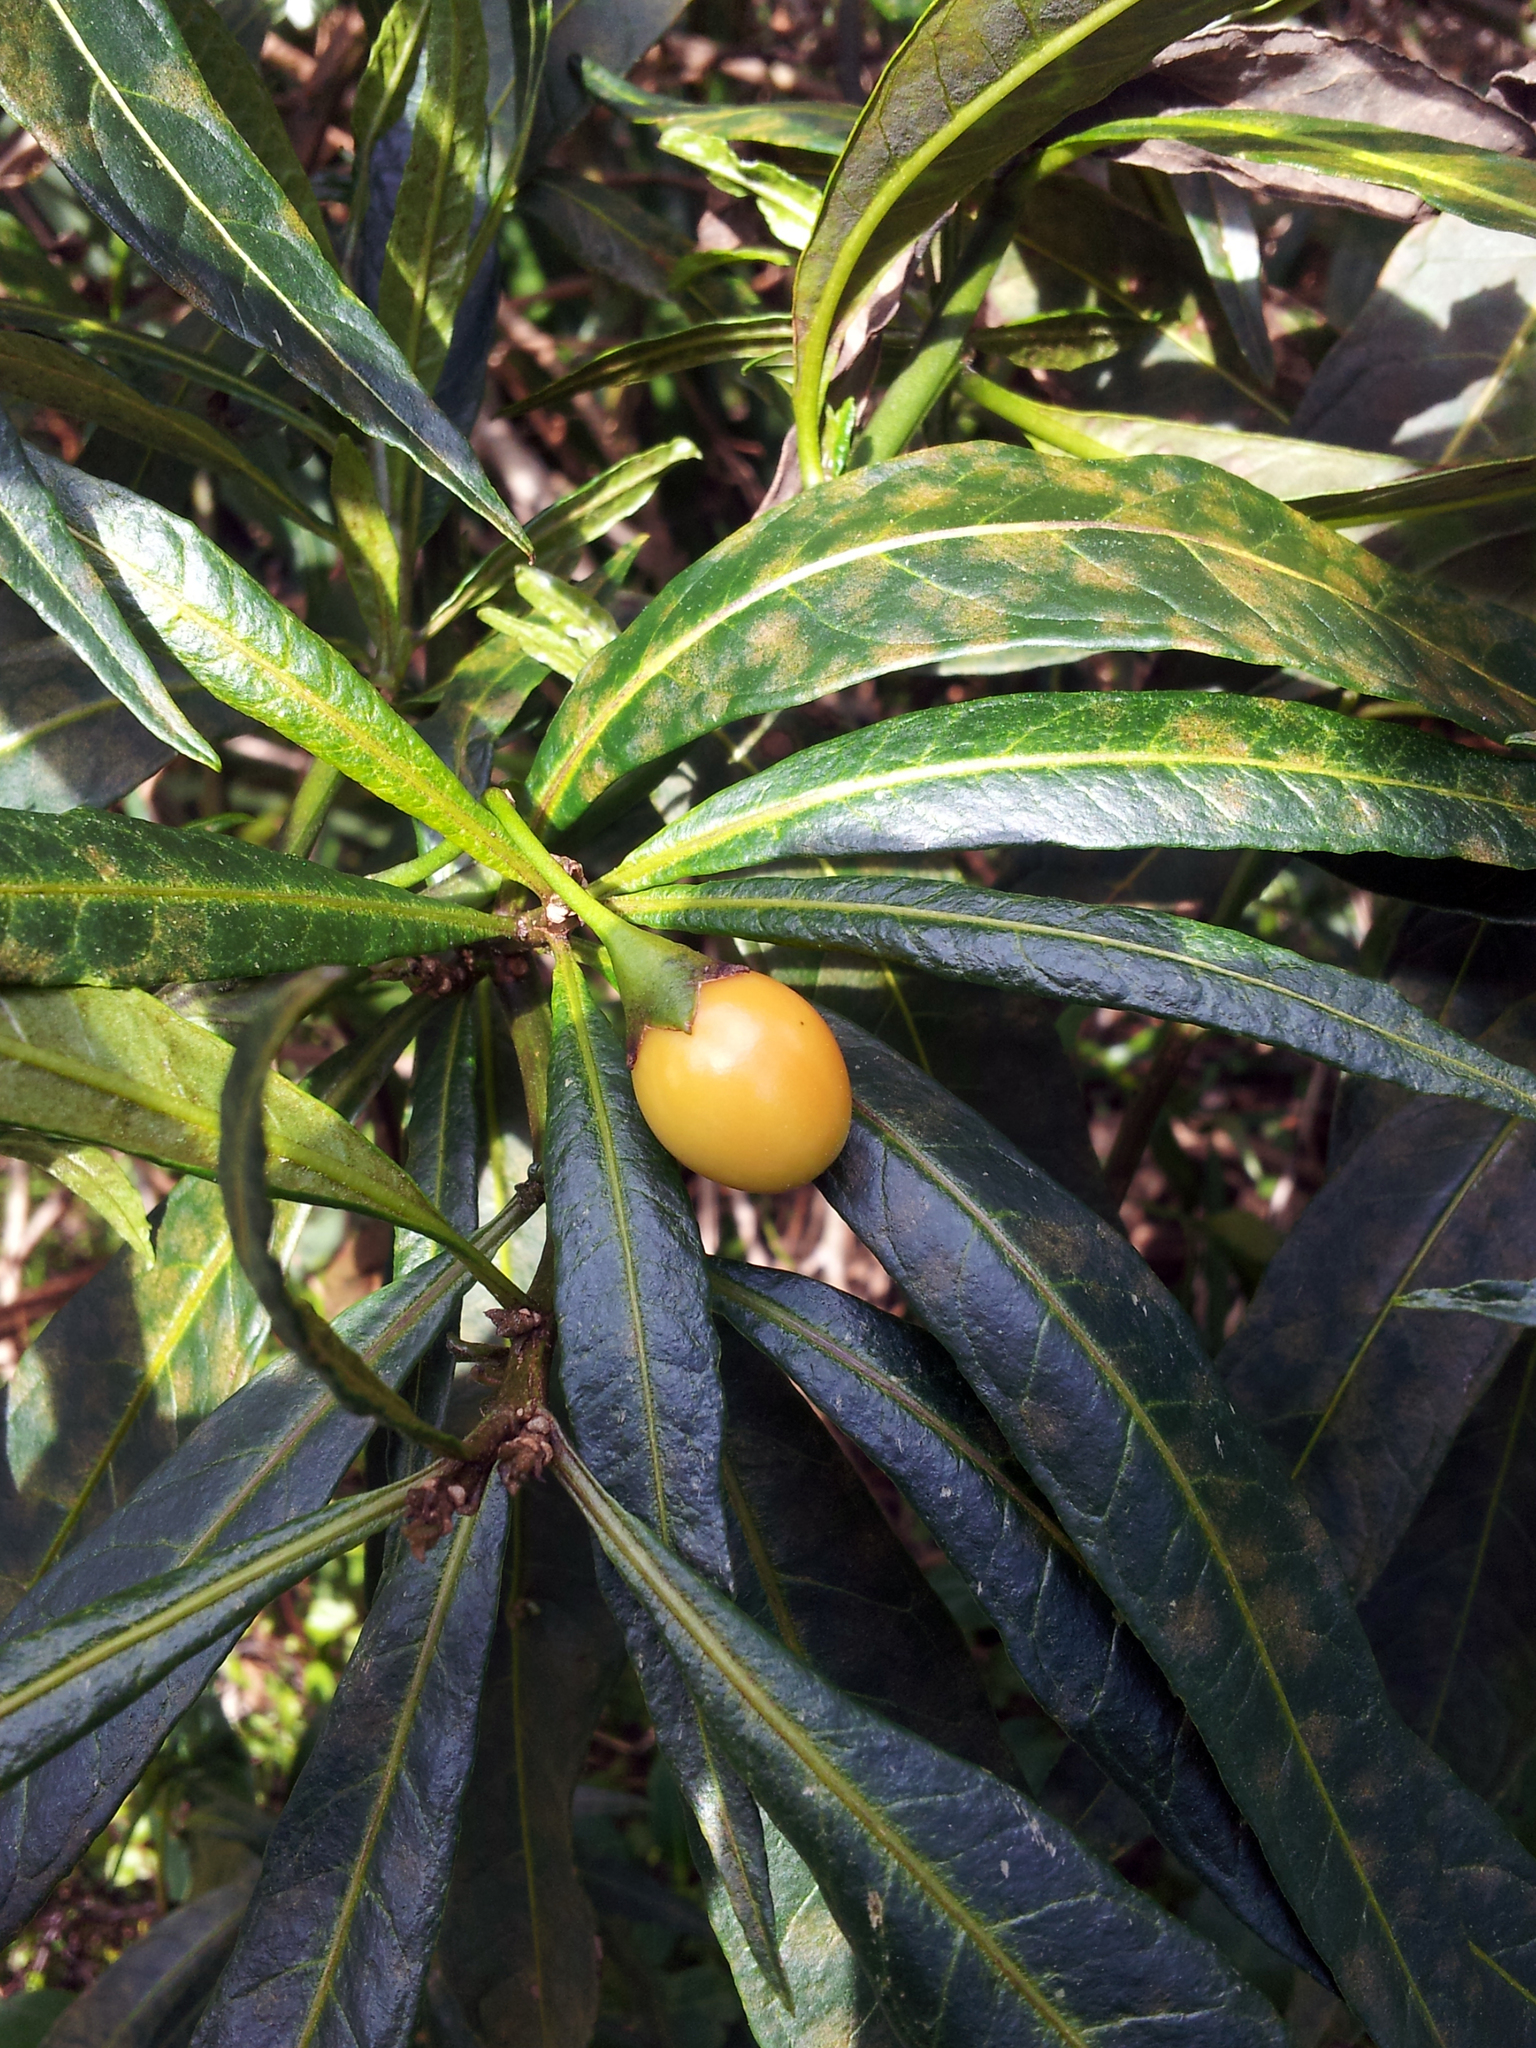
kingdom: Plantae
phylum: Tracheophyta
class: Magnoliopsida
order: Solanales
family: Solanaceae
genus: Solanum
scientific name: Solanum laciniatum
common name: Kangaroo-apple
